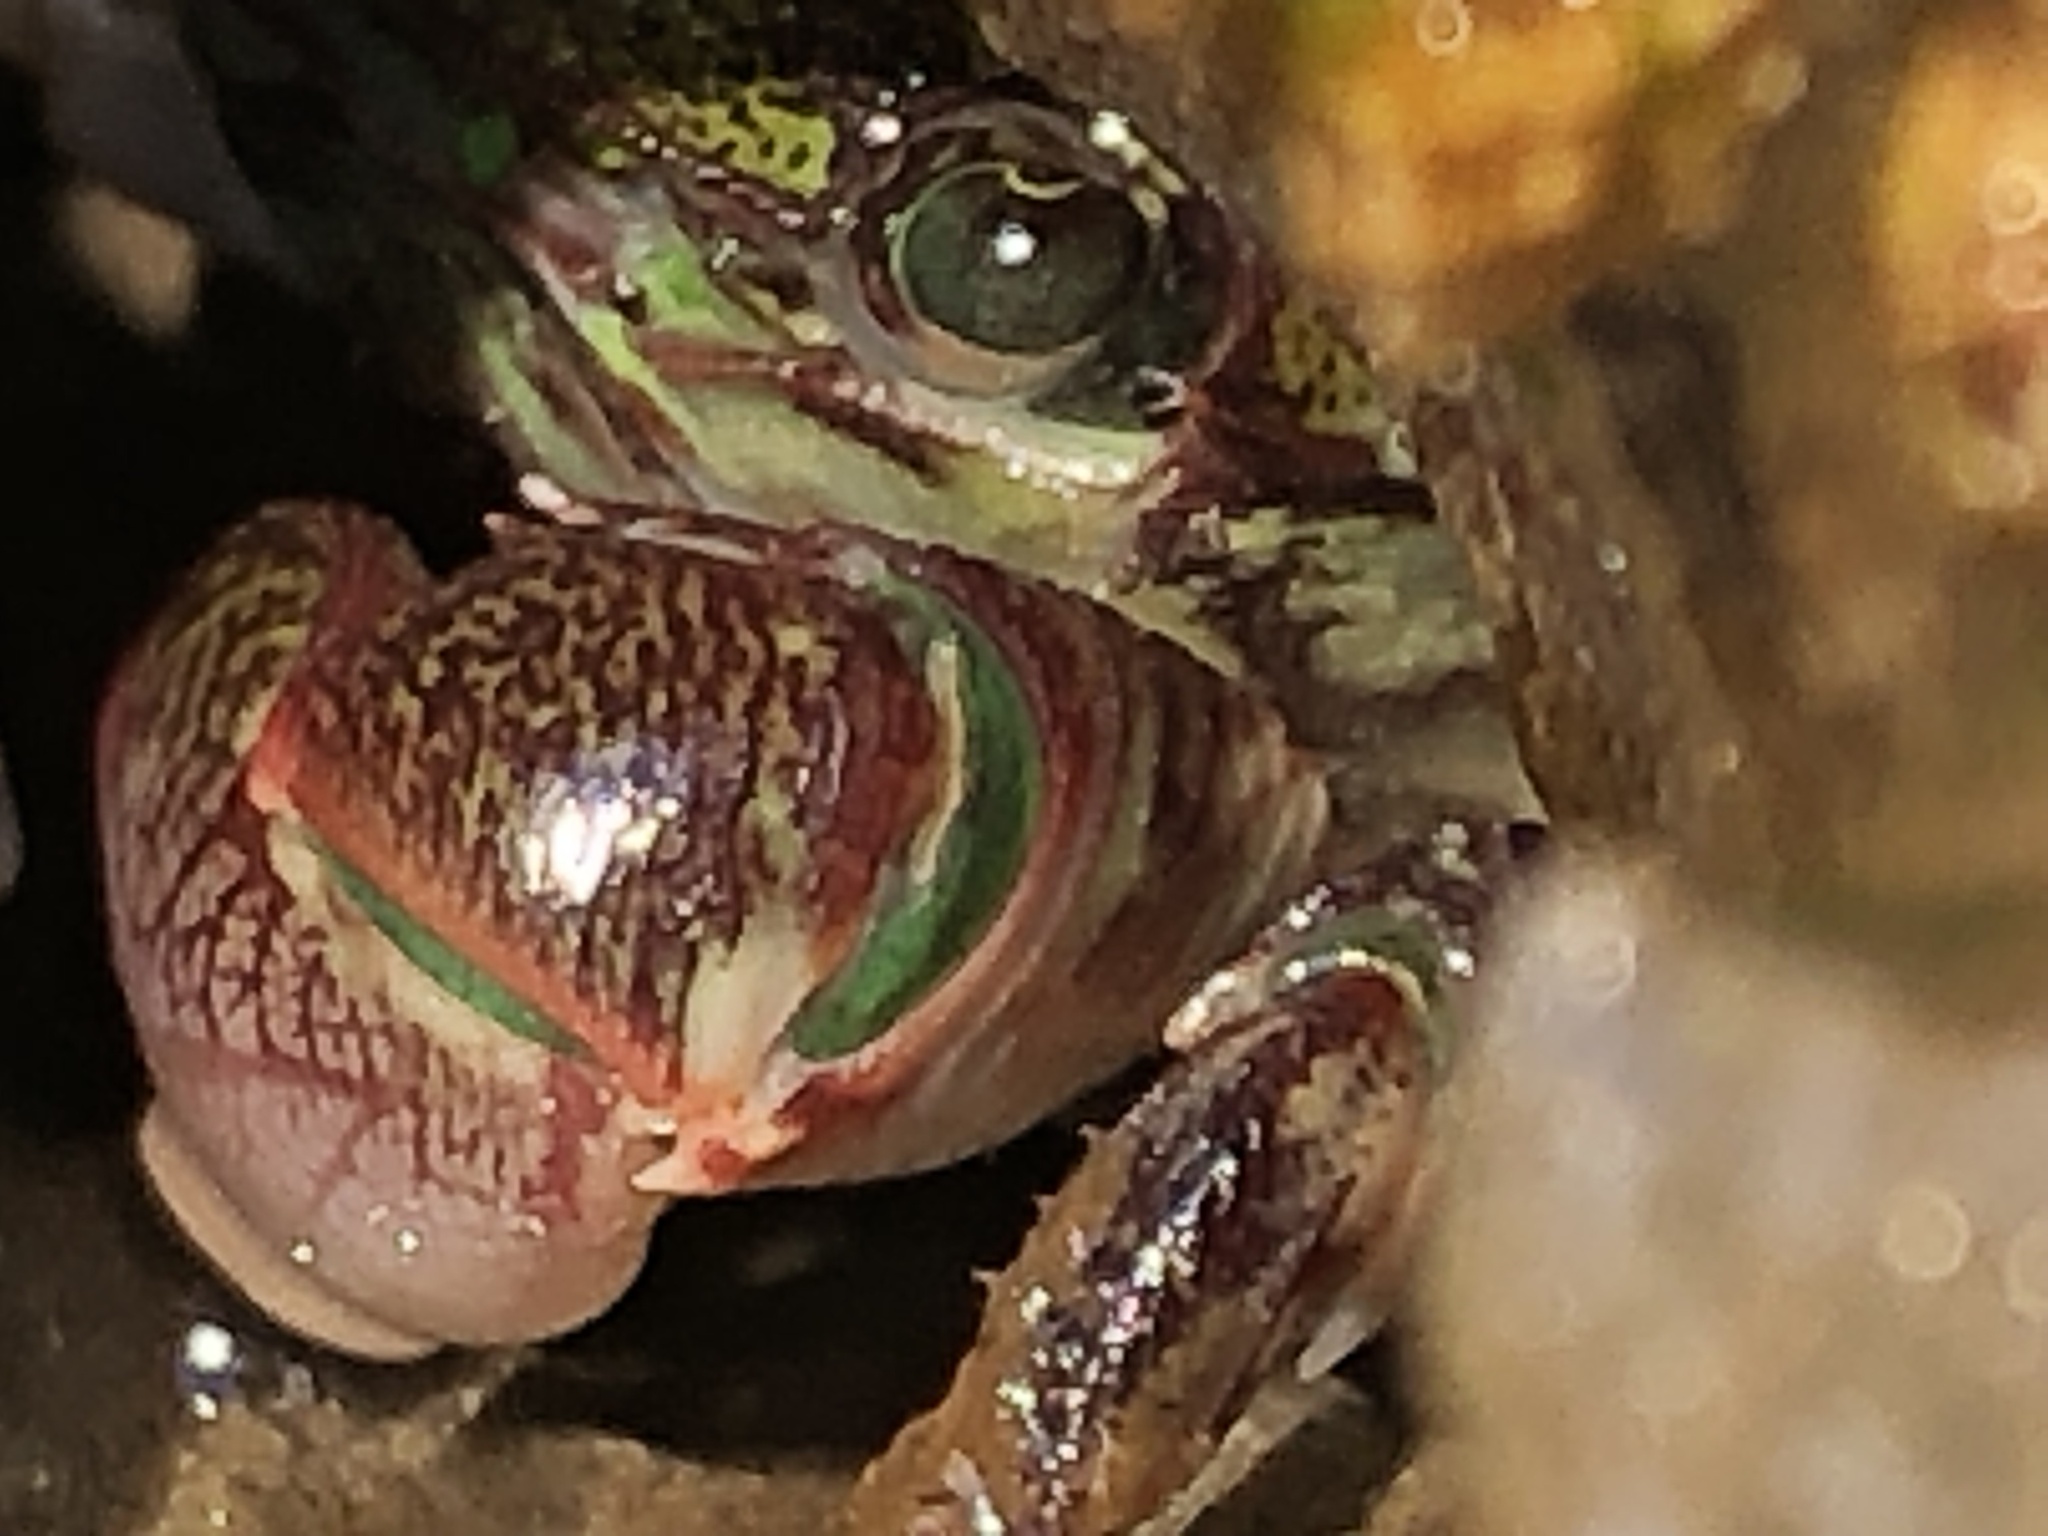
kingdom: Animalia
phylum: Arthropoda
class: Malacostraca
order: Decapoda
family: Grapsidae
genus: Pachygrapsus
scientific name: Pachygrapsus crassipes
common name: Striped shore crab
